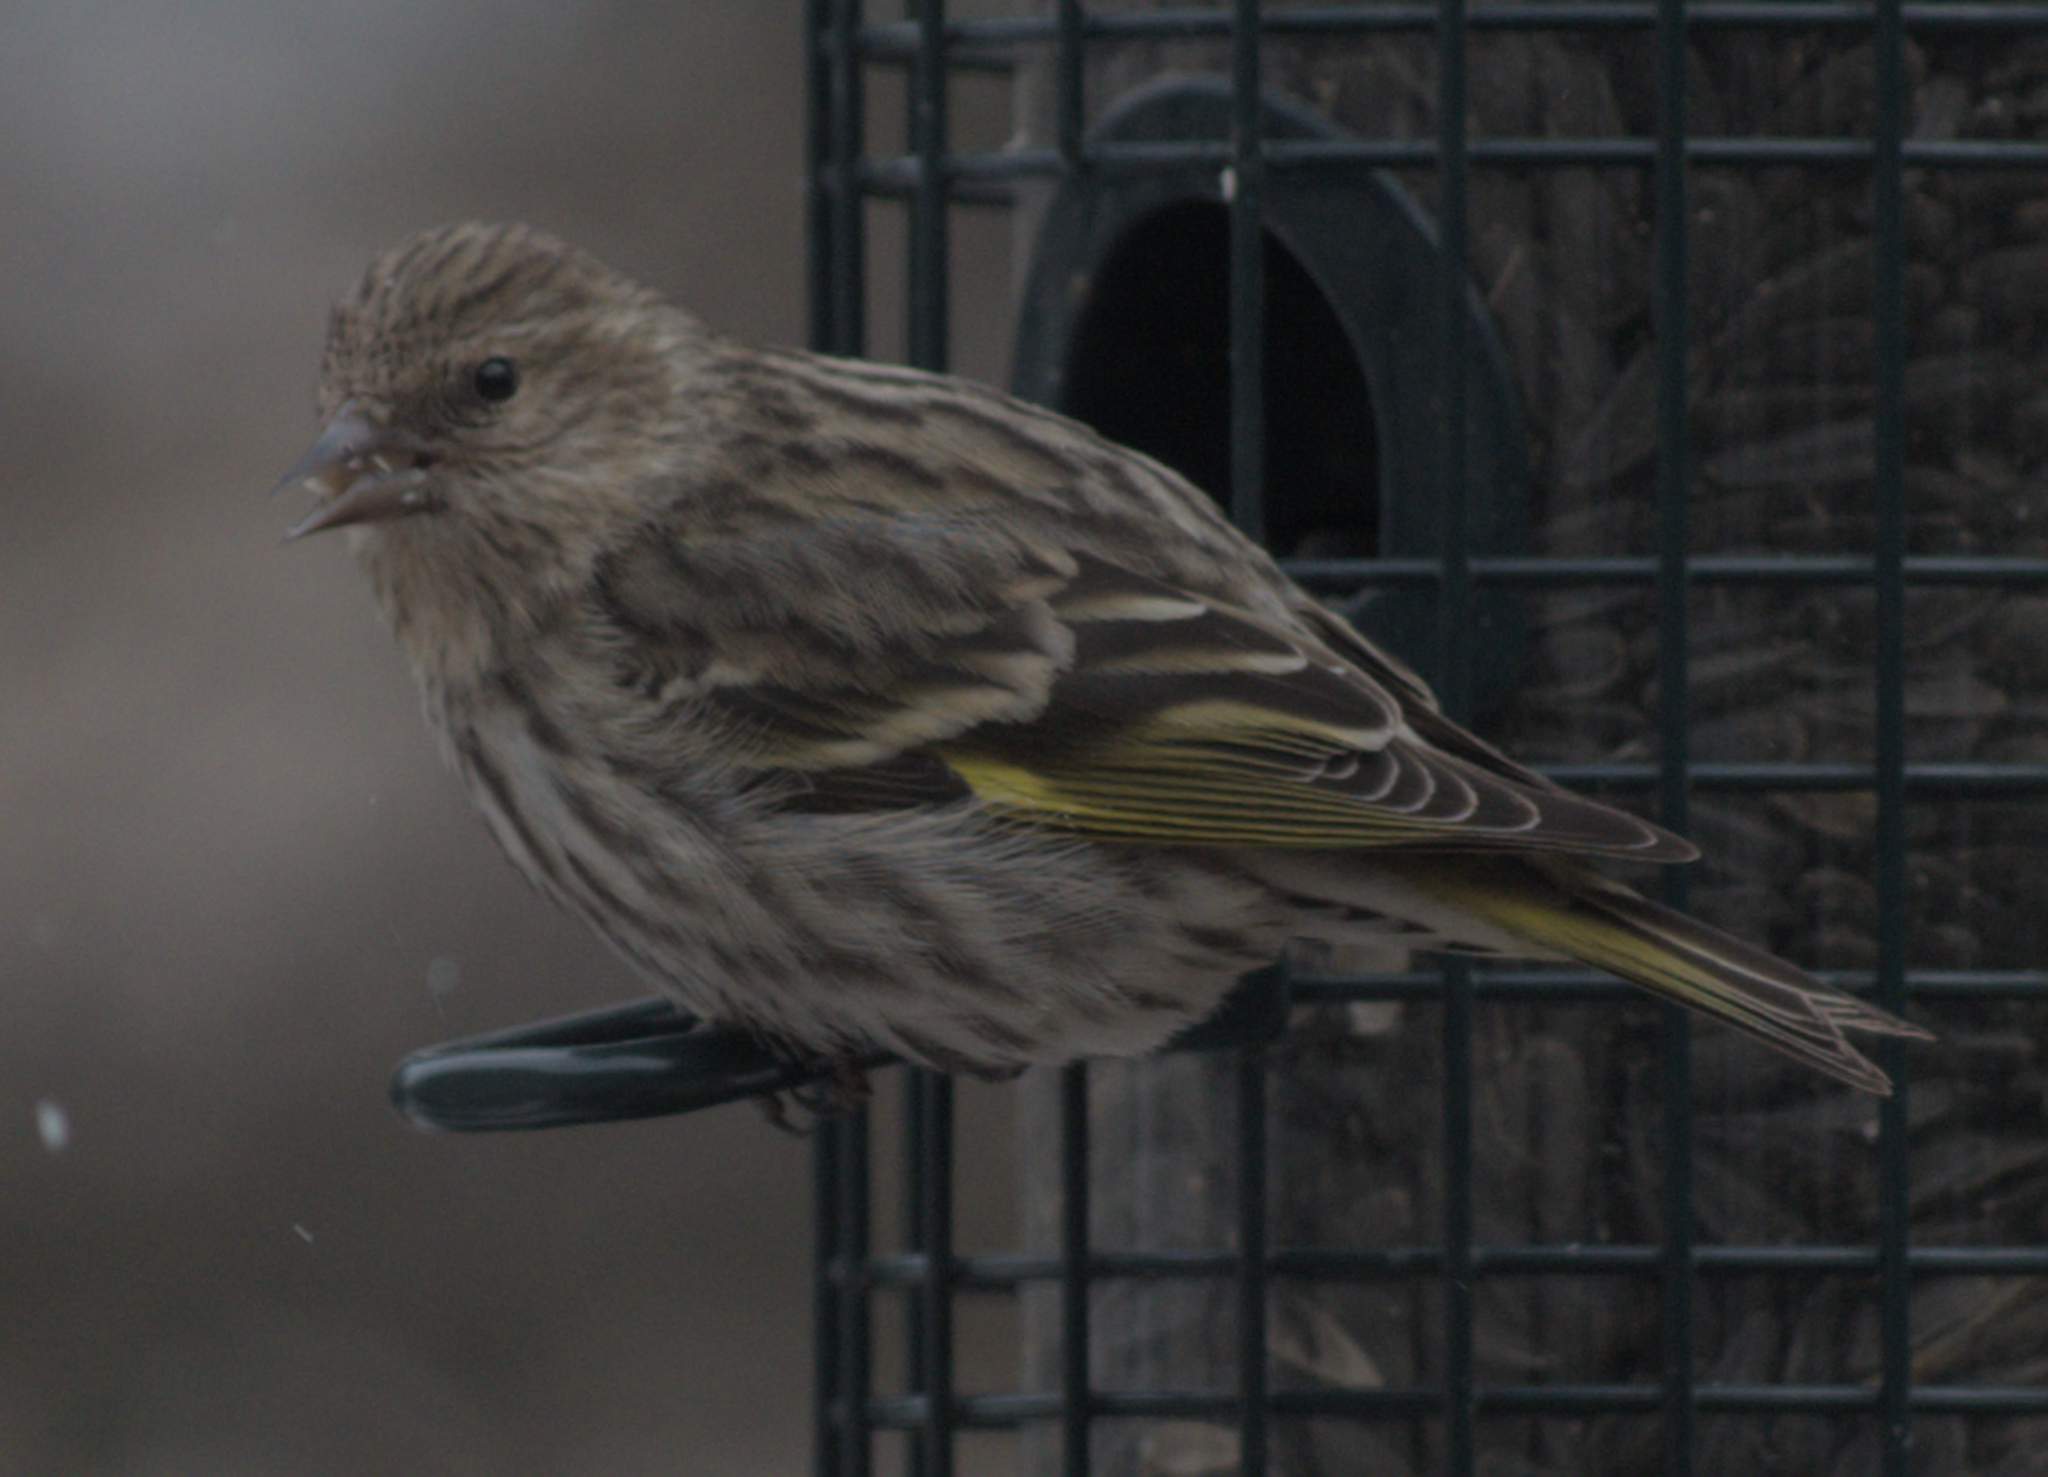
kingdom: Animalia
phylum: Chordata
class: Aves
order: Passeriformes
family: Fringillidae
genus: Spinus
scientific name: Spinus pinus
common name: Pine siskin
